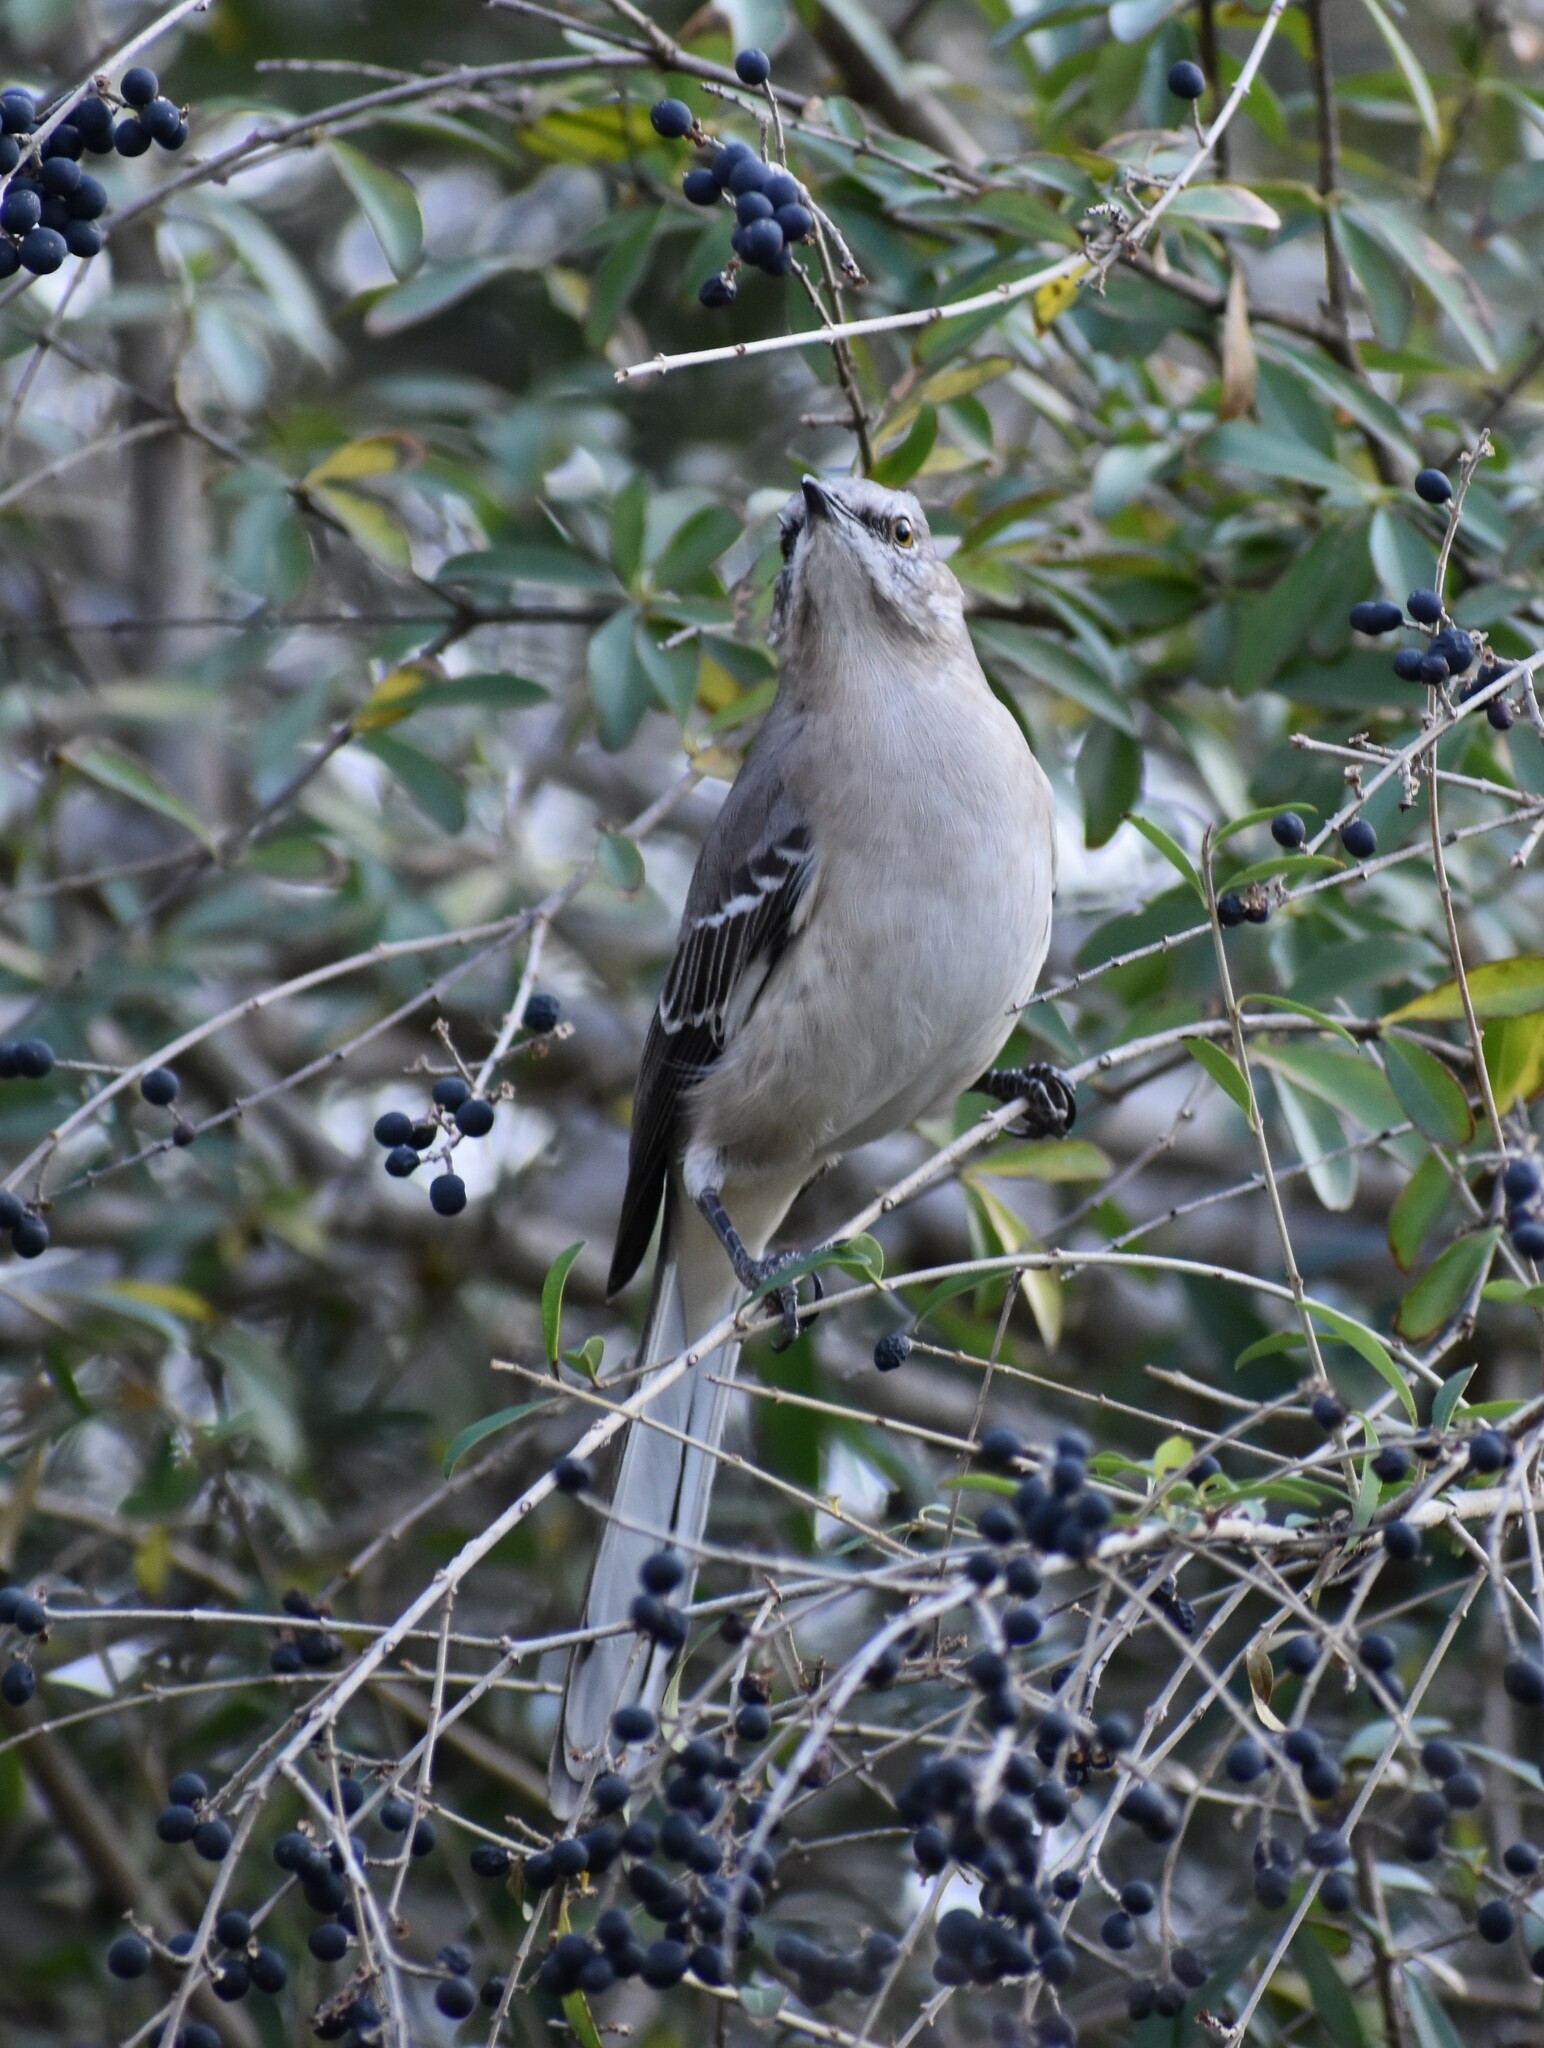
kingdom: Animalia
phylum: Chordata
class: Aves
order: Passeriformes
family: Mimidae
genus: Mimus
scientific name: Mimus polyglottos
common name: Northern mockingbird
